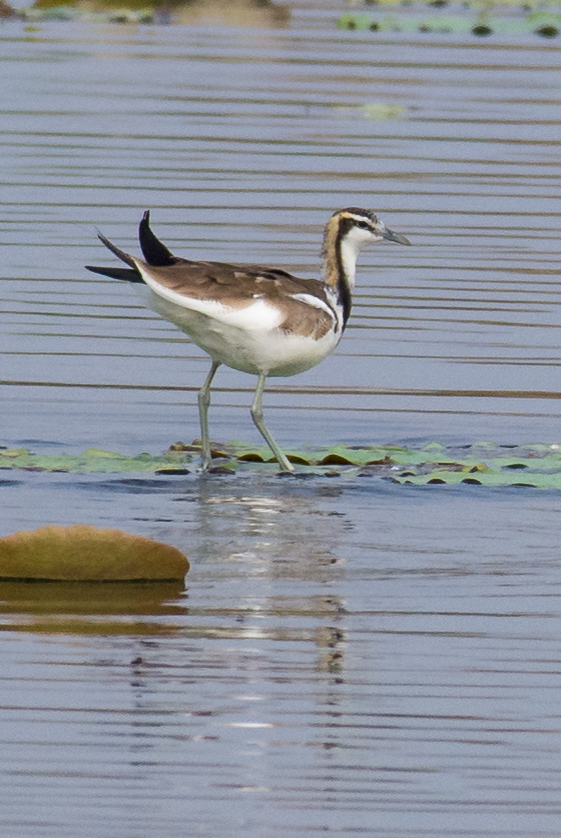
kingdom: Animalia
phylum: Chordata
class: Aves
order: Charadriiformes
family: Jacanidae
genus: Hydrophasianus
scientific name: Hydrophasianus chirurgus
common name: Pheasant-tailed jacana
